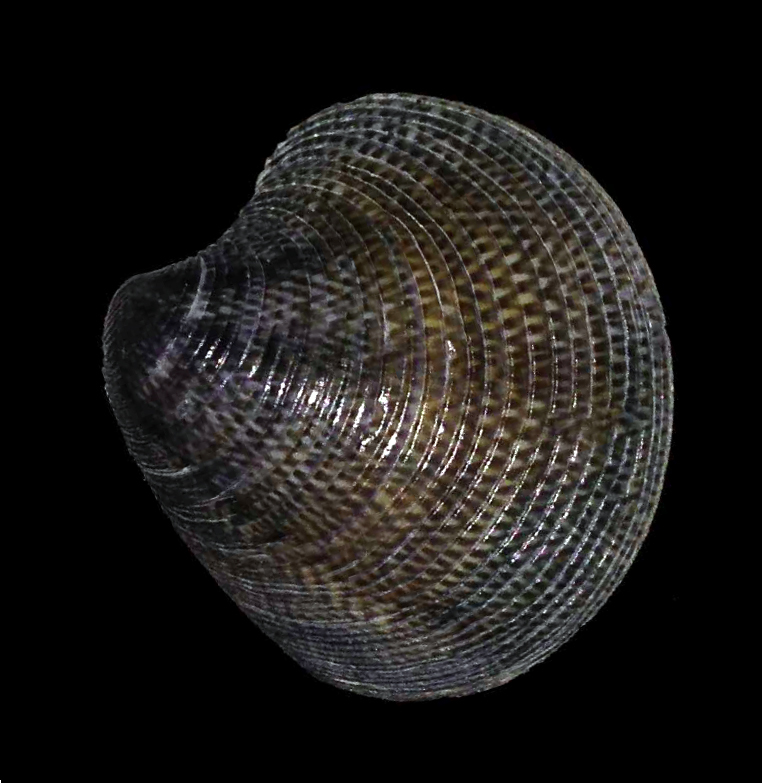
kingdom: Animalia
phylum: Mollusca
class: Bivalvia
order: Venerida
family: Veneridae
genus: Chamelea
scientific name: Chamelea gallina
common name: Chicken venus
